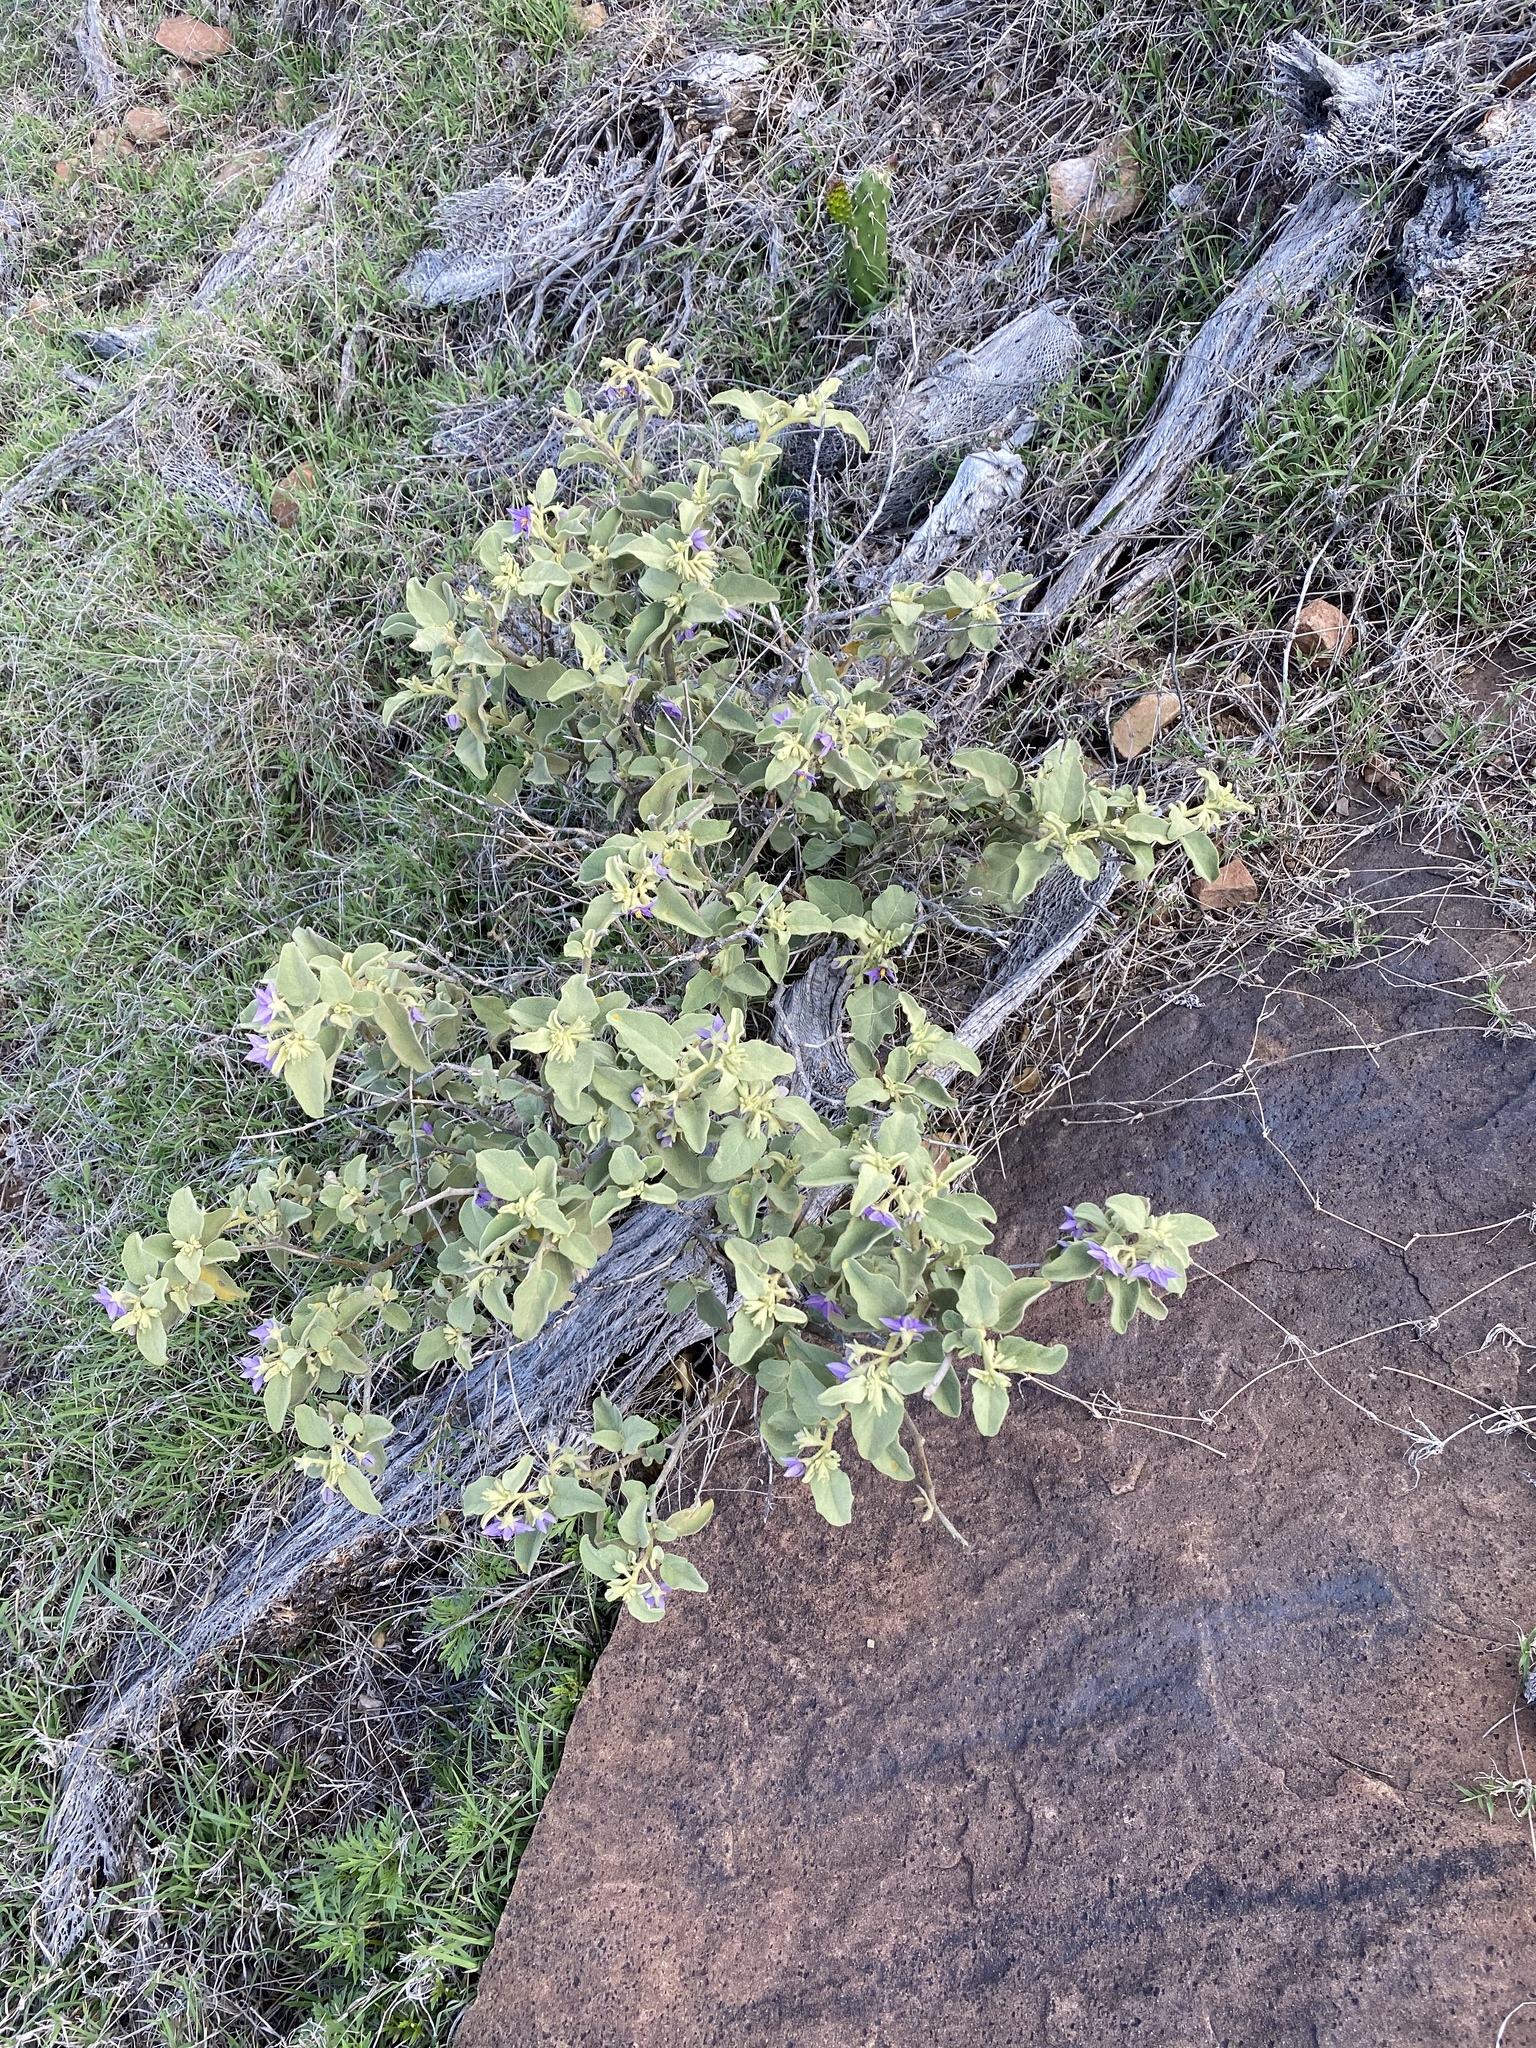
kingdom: Plantae
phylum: Tracheophyta
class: Magnoliopsida
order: Solanales
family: Solanaceae
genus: Solanum
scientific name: Solanum tomentosum
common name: Wild aubergine
